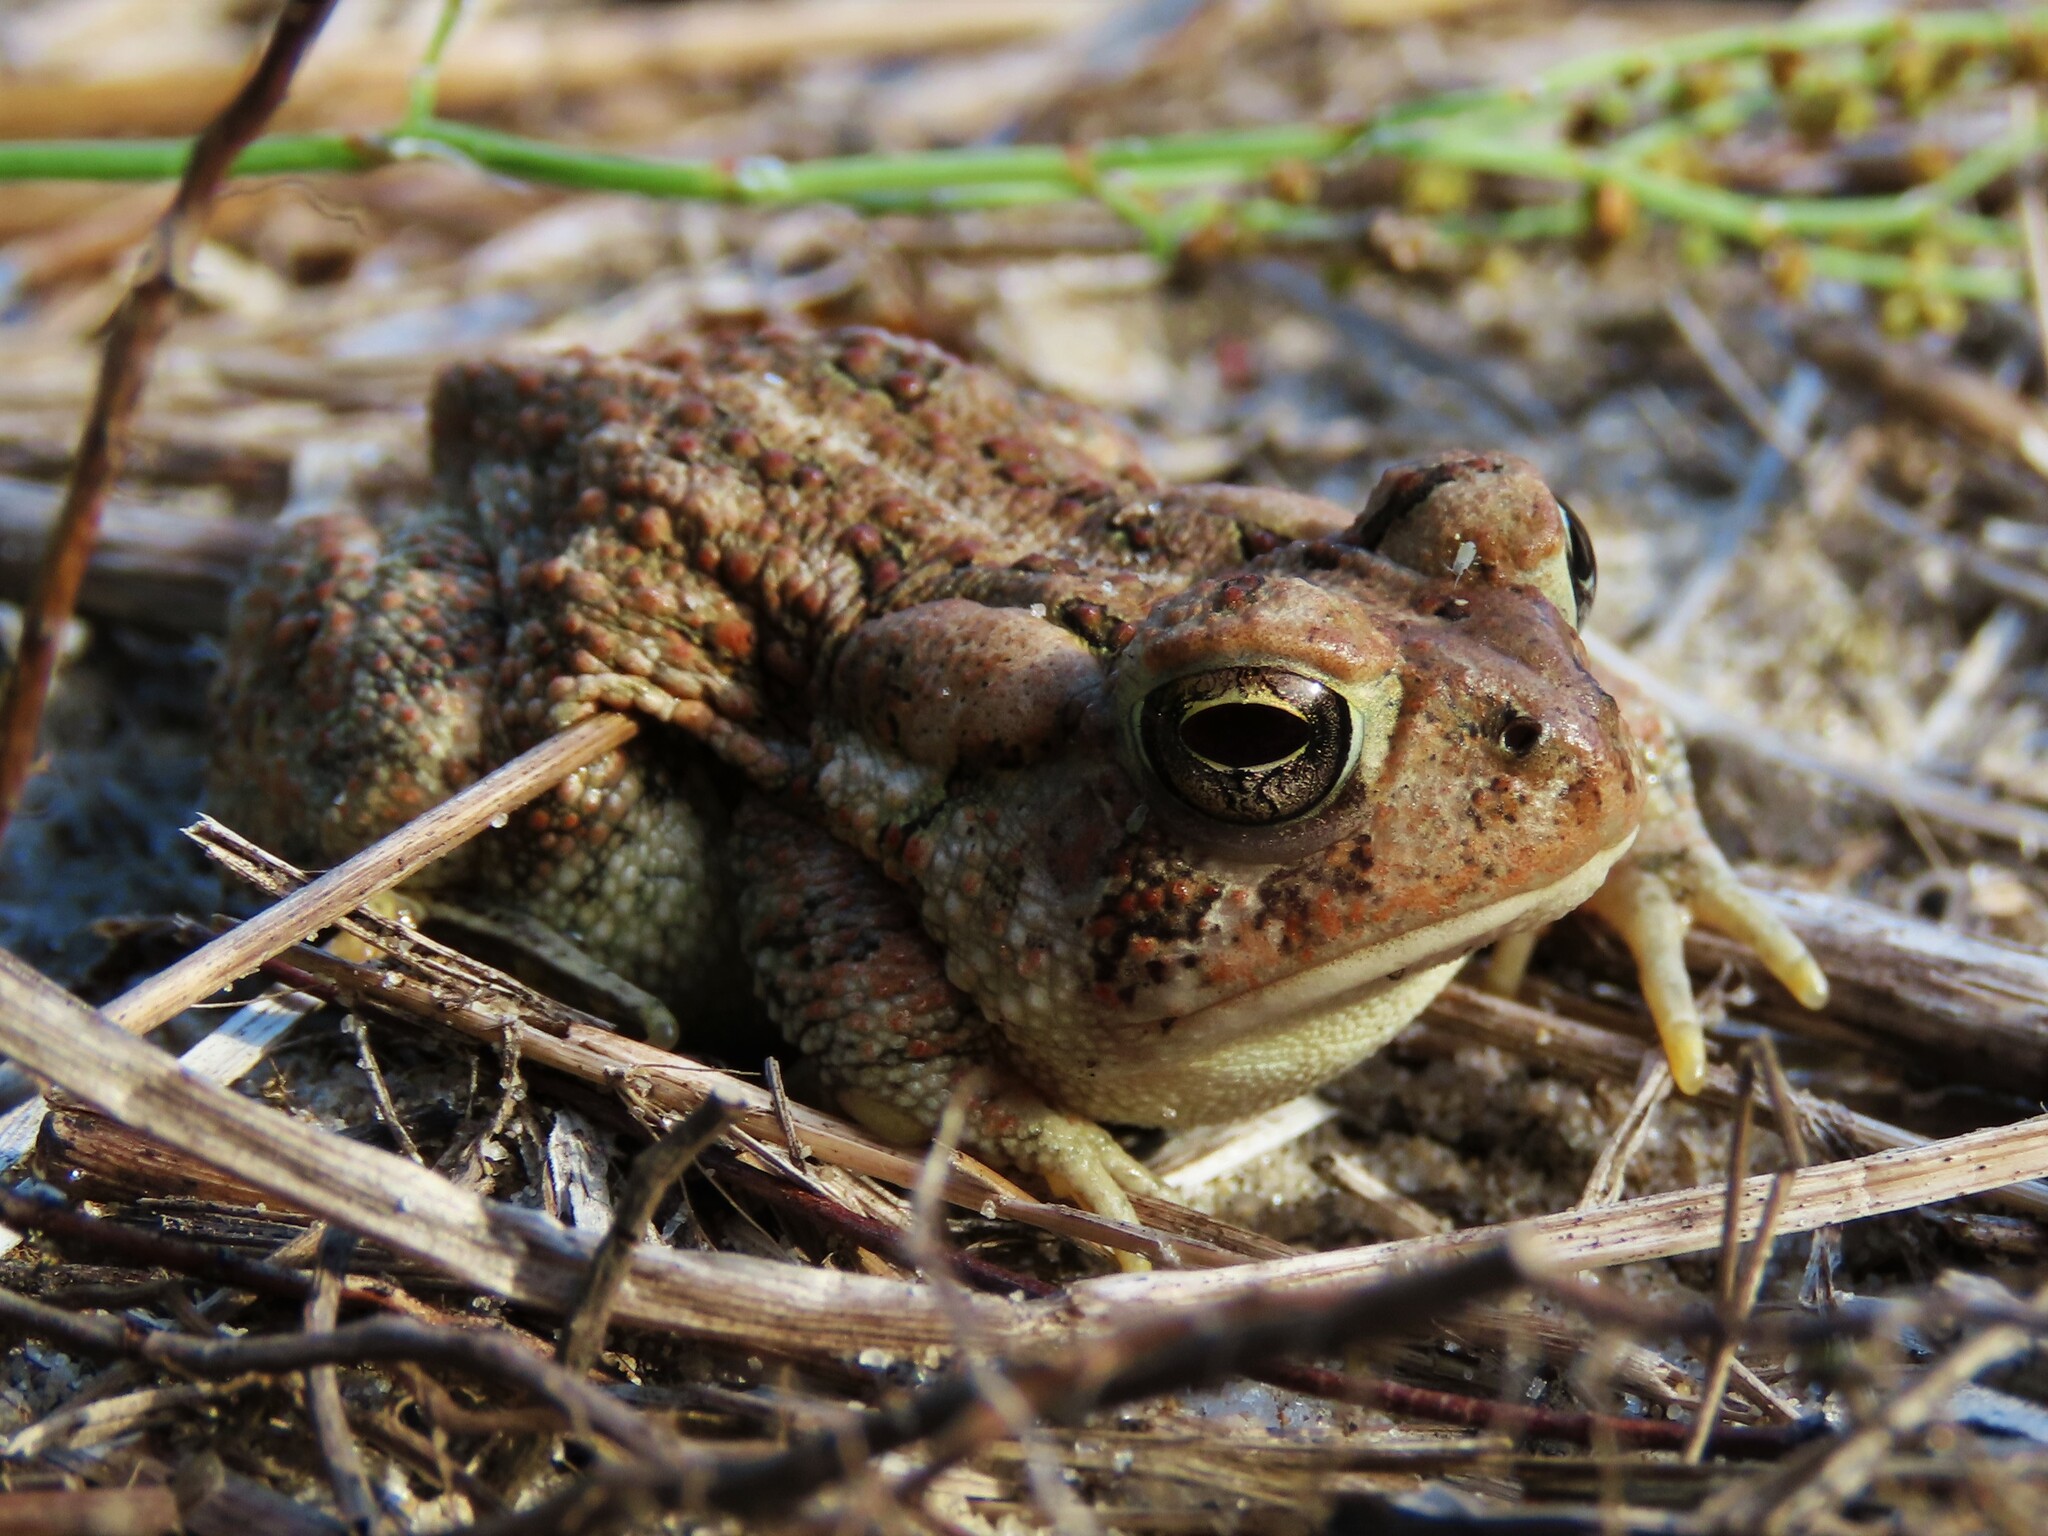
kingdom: Animalia
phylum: Chordata
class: Amphibia
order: Anura
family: Bufonidae
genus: Anaxyrus
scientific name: Anaxyrus fowleri
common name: Fowler's toad
